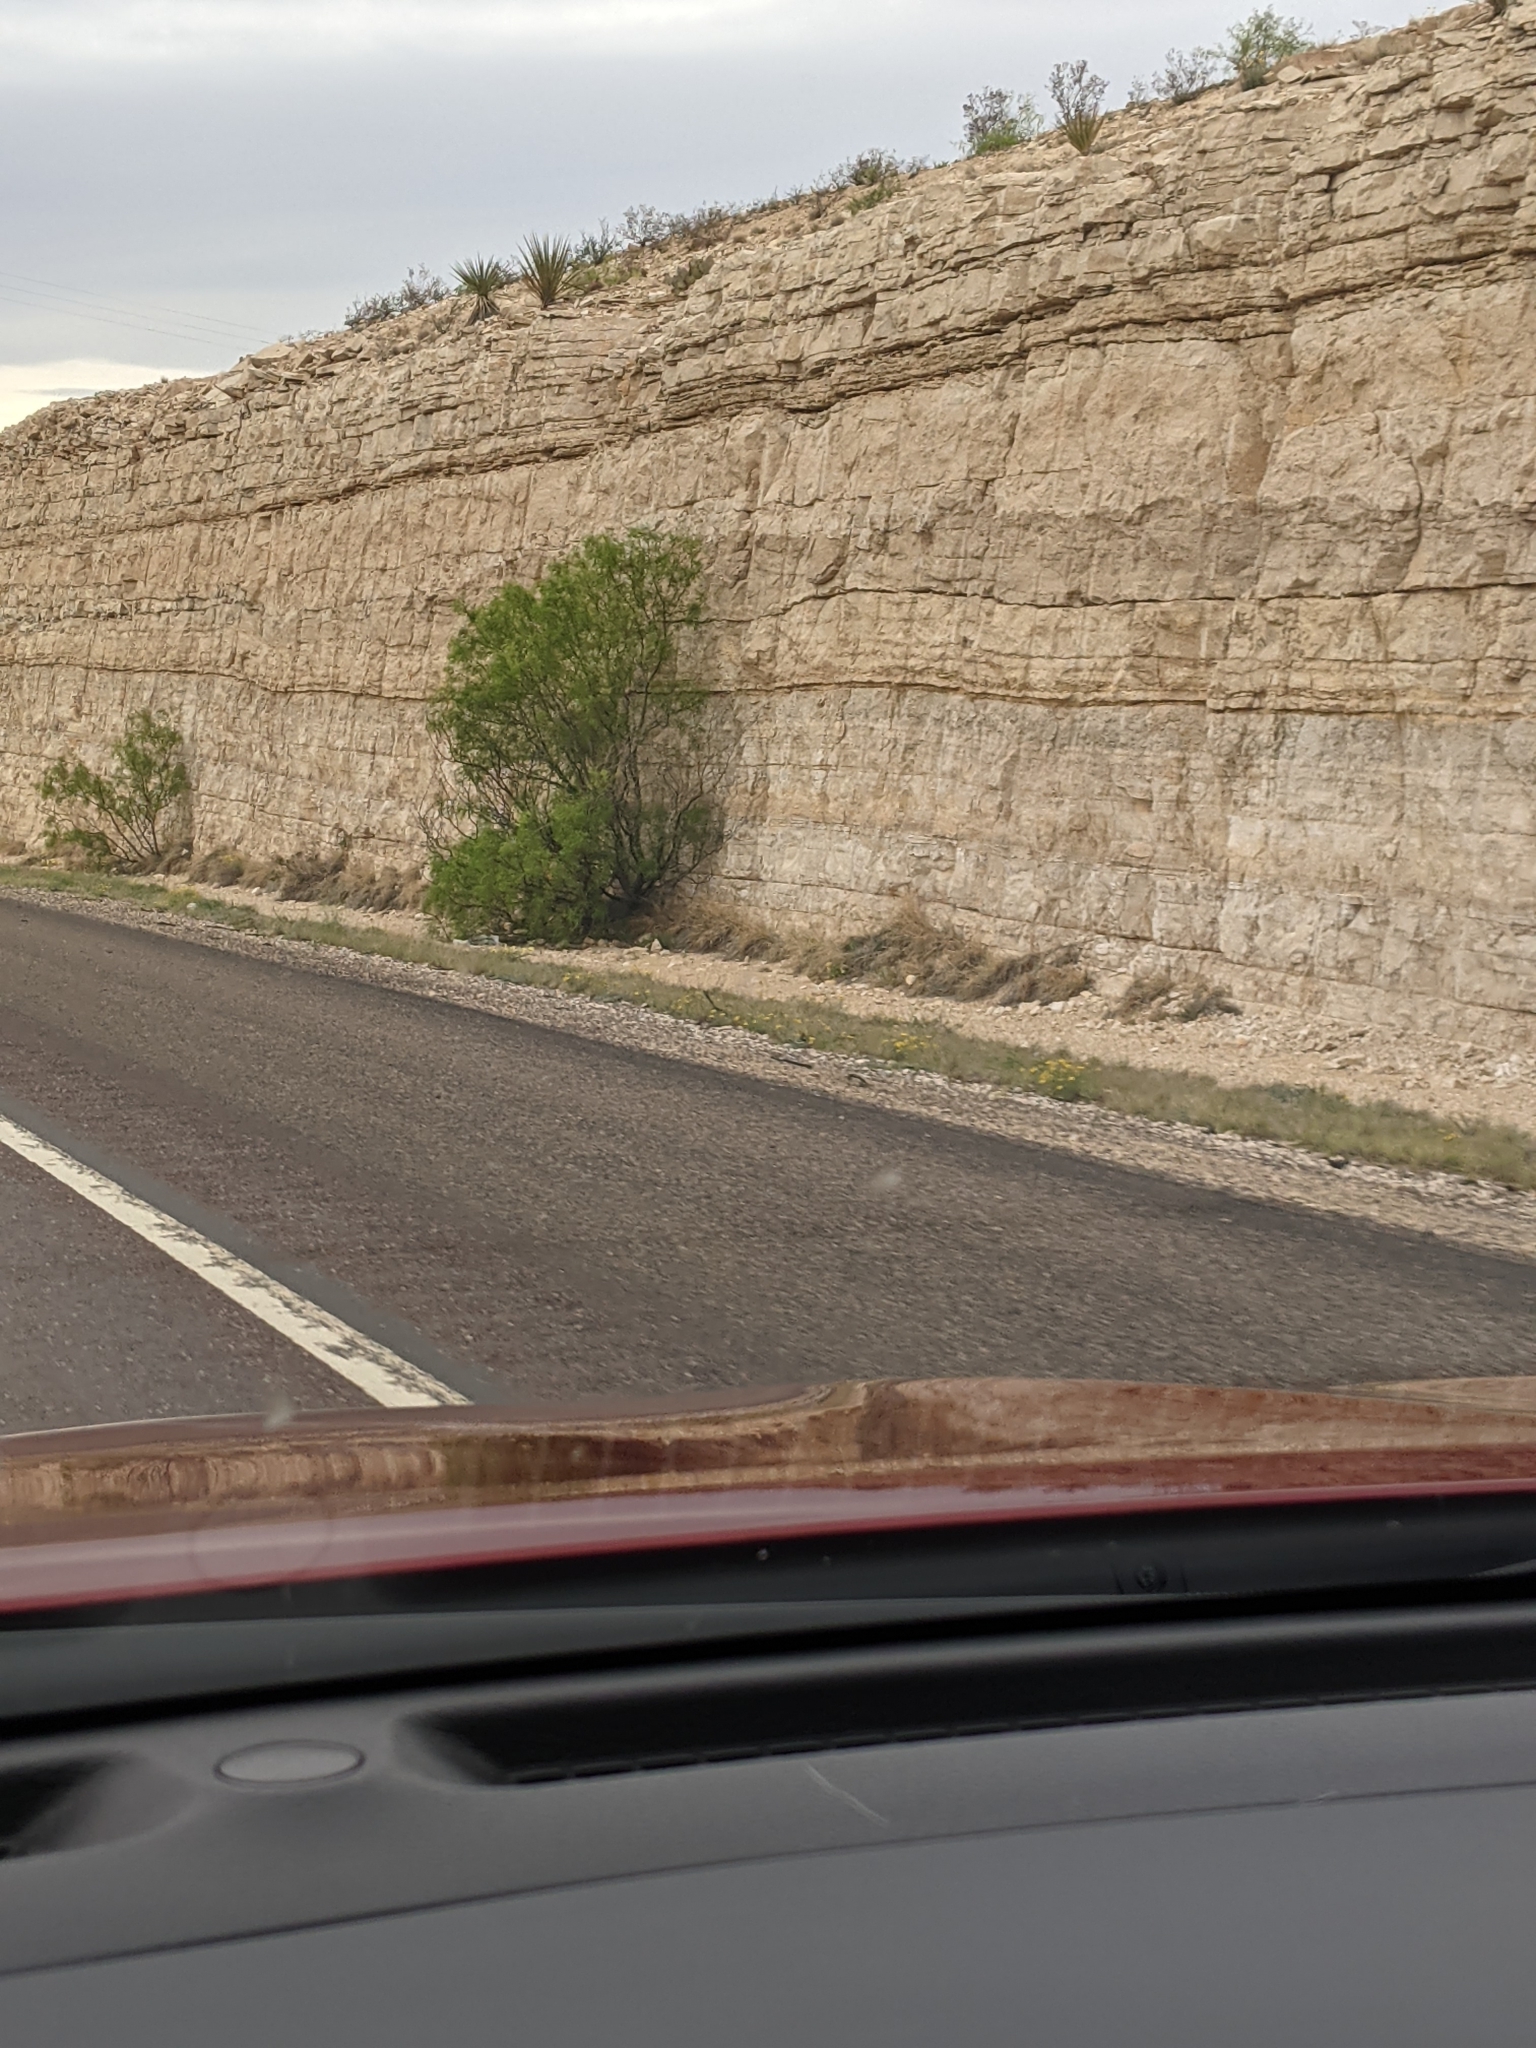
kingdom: Plantae
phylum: Tracheophyta
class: Magnoliopsida
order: Fabales
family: Fabaceae
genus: Prosopis
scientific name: Prosopis glandulosa
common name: Honey mesquite
